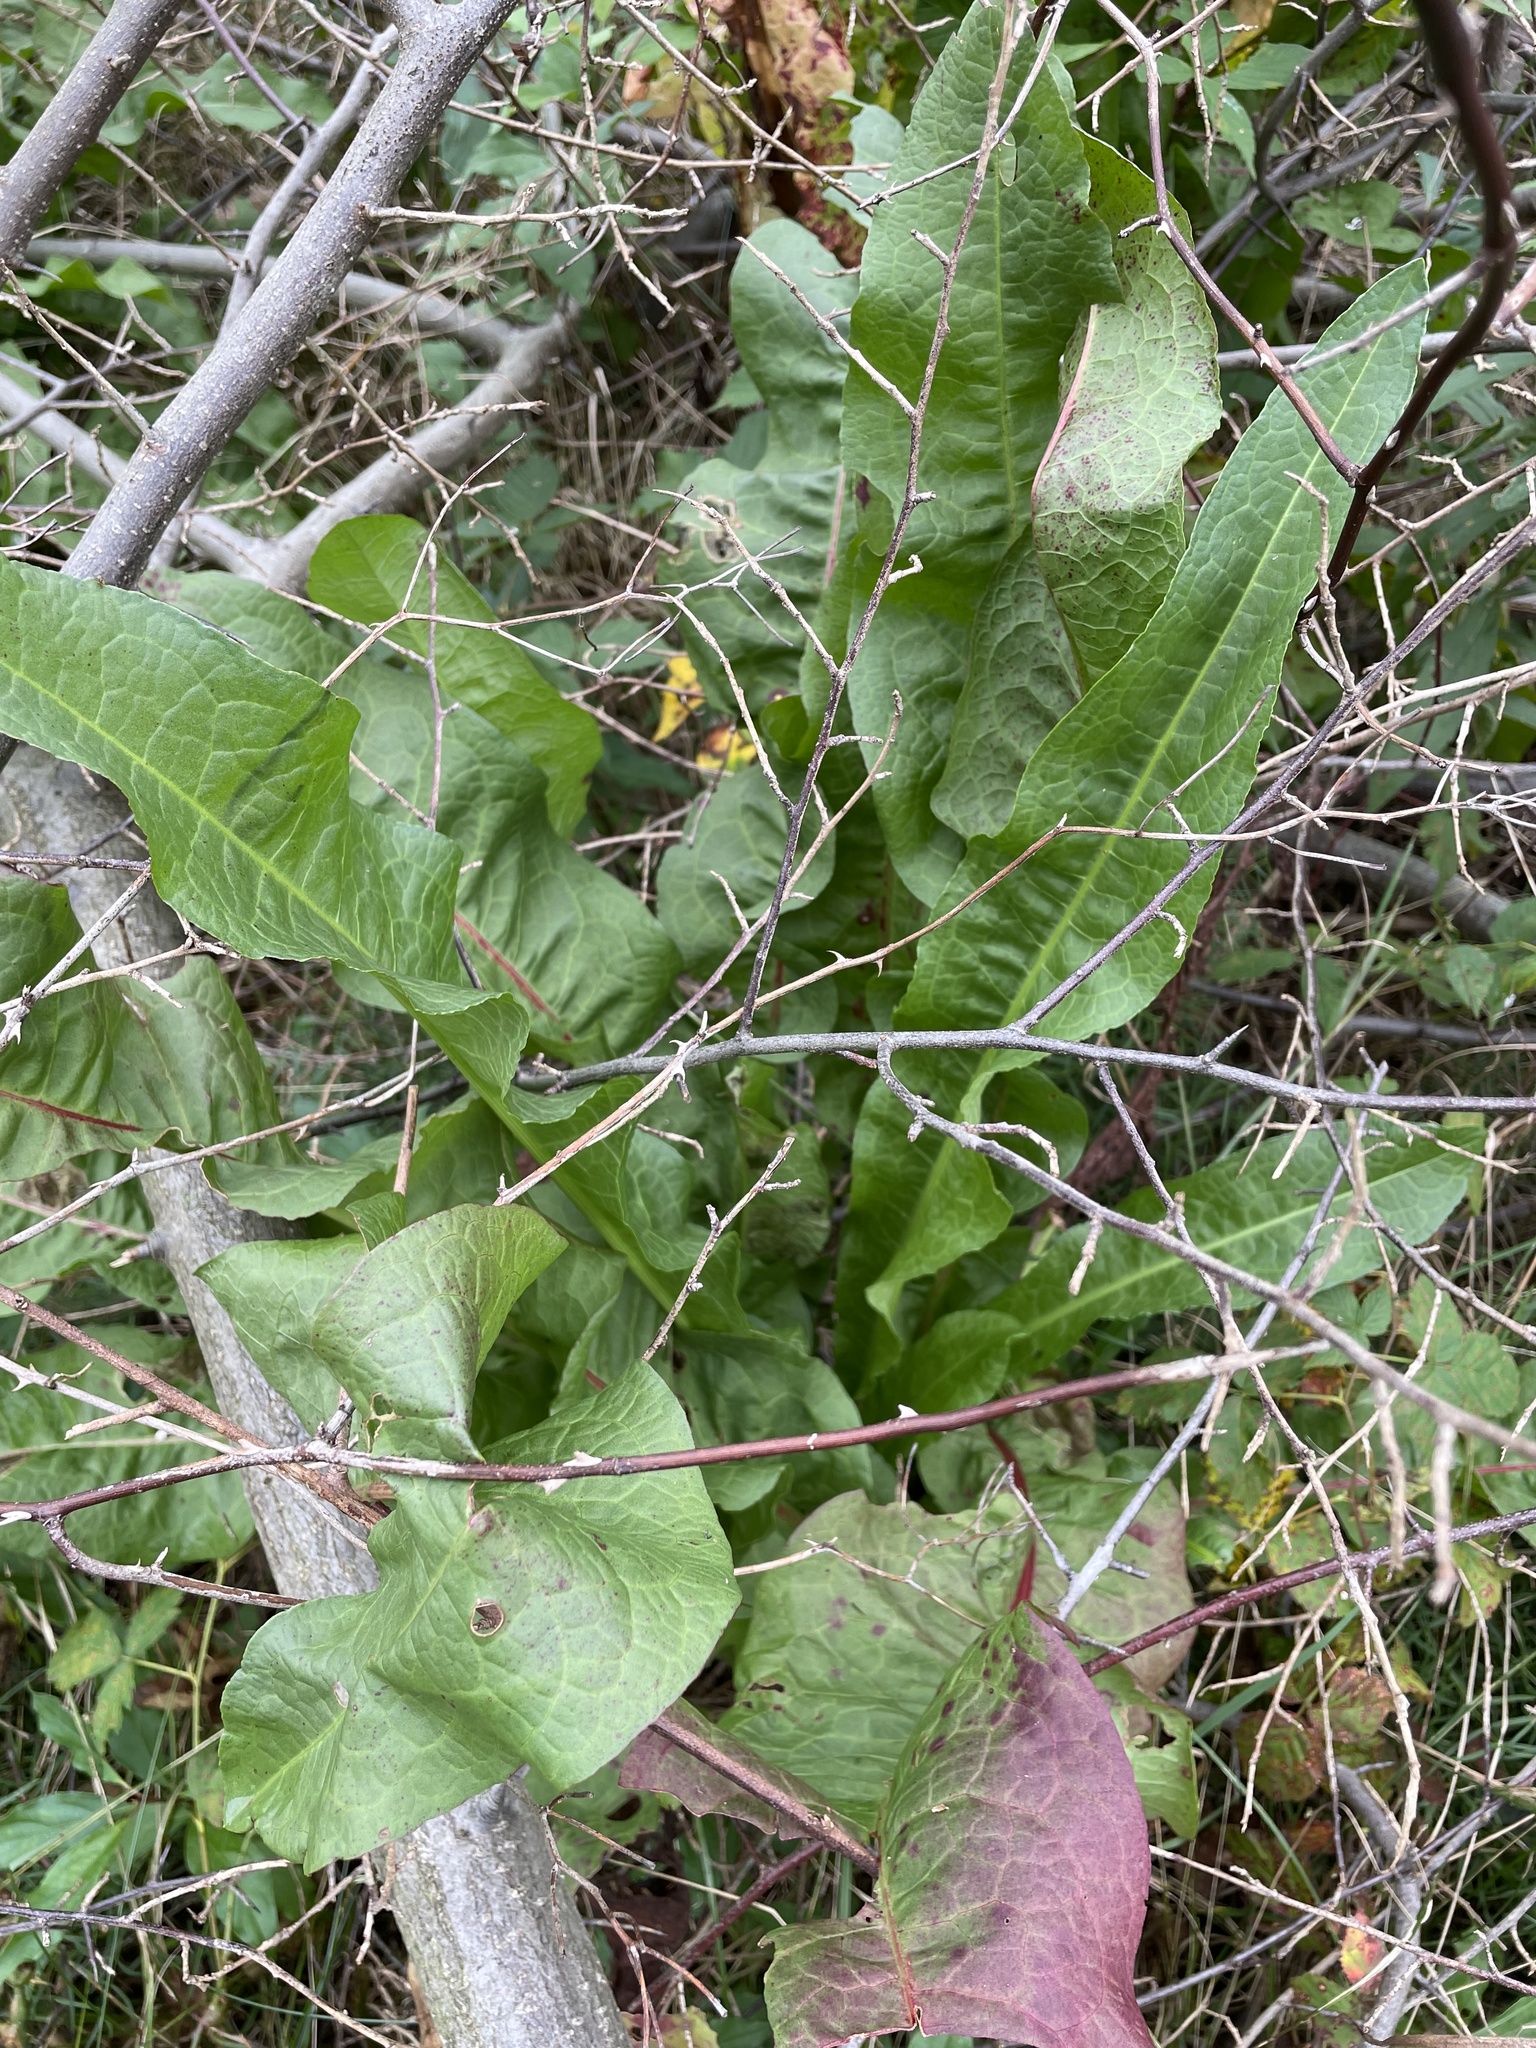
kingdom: Plantae
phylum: Tracheophyta
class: Magnoliopsida
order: Caryophyllales
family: Polygonaceae
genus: Rumex
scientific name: Rumex crispus
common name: Curled dock
